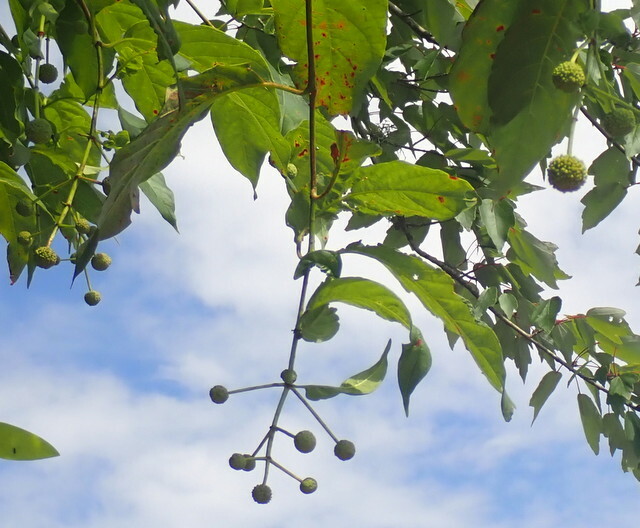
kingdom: Plantae
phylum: Tracheophyta
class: Magnoliopsida
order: Gentianales
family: Rubiaceae
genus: Cephalanthus
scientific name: Cephalanthus occidentalis
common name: Button-willow
